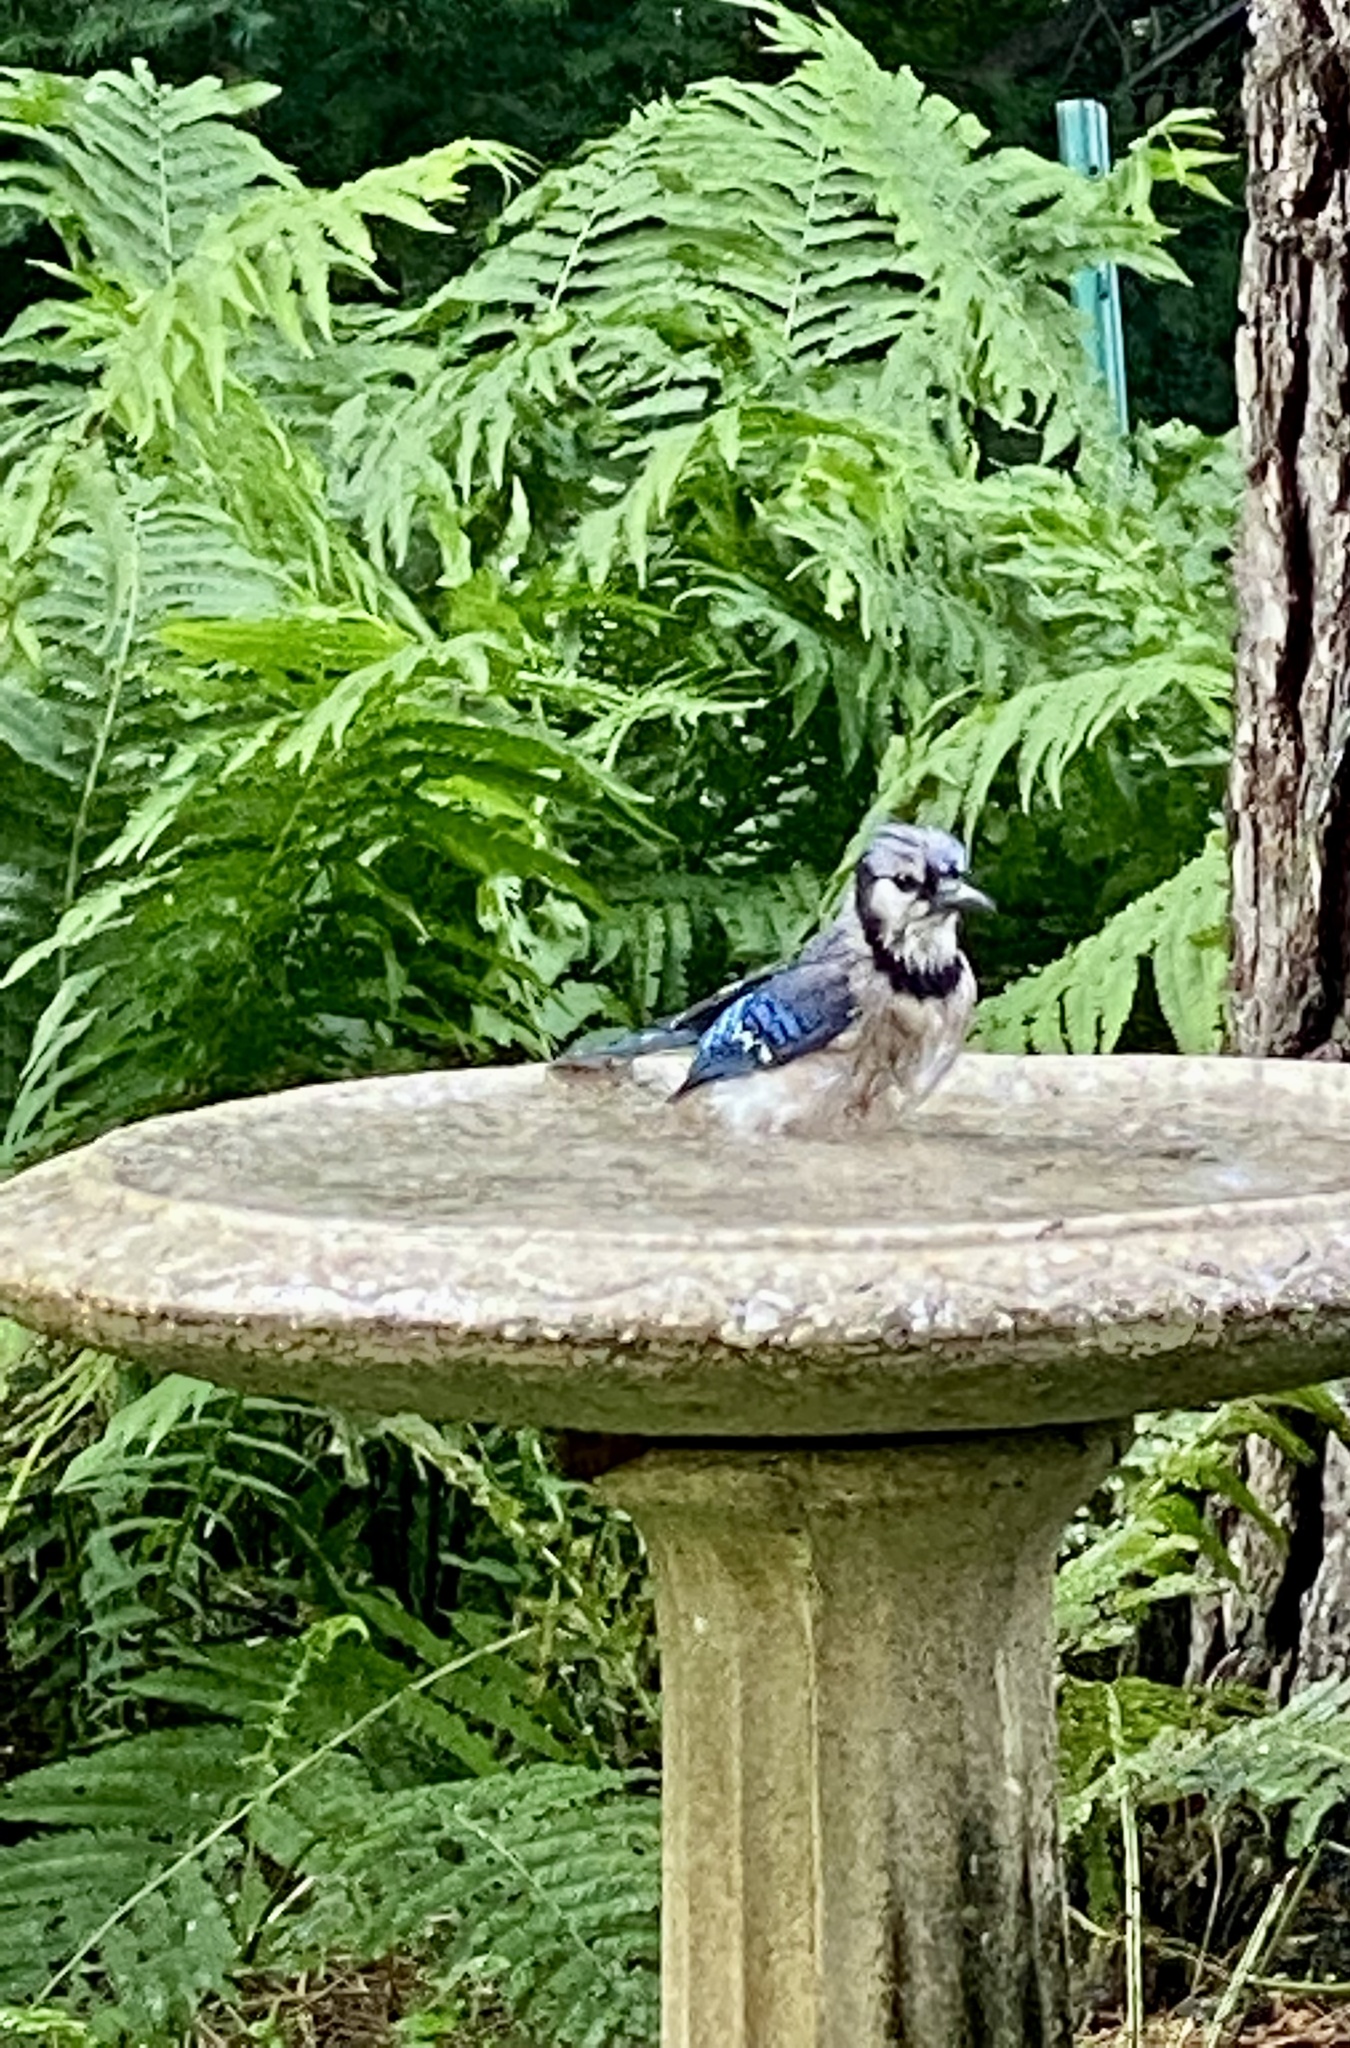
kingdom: Animalia
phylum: Chordata
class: Aves
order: Passeriformes
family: Corvidae
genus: Cyanocitta
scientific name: Cyanocitta cristata
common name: Blue jay
